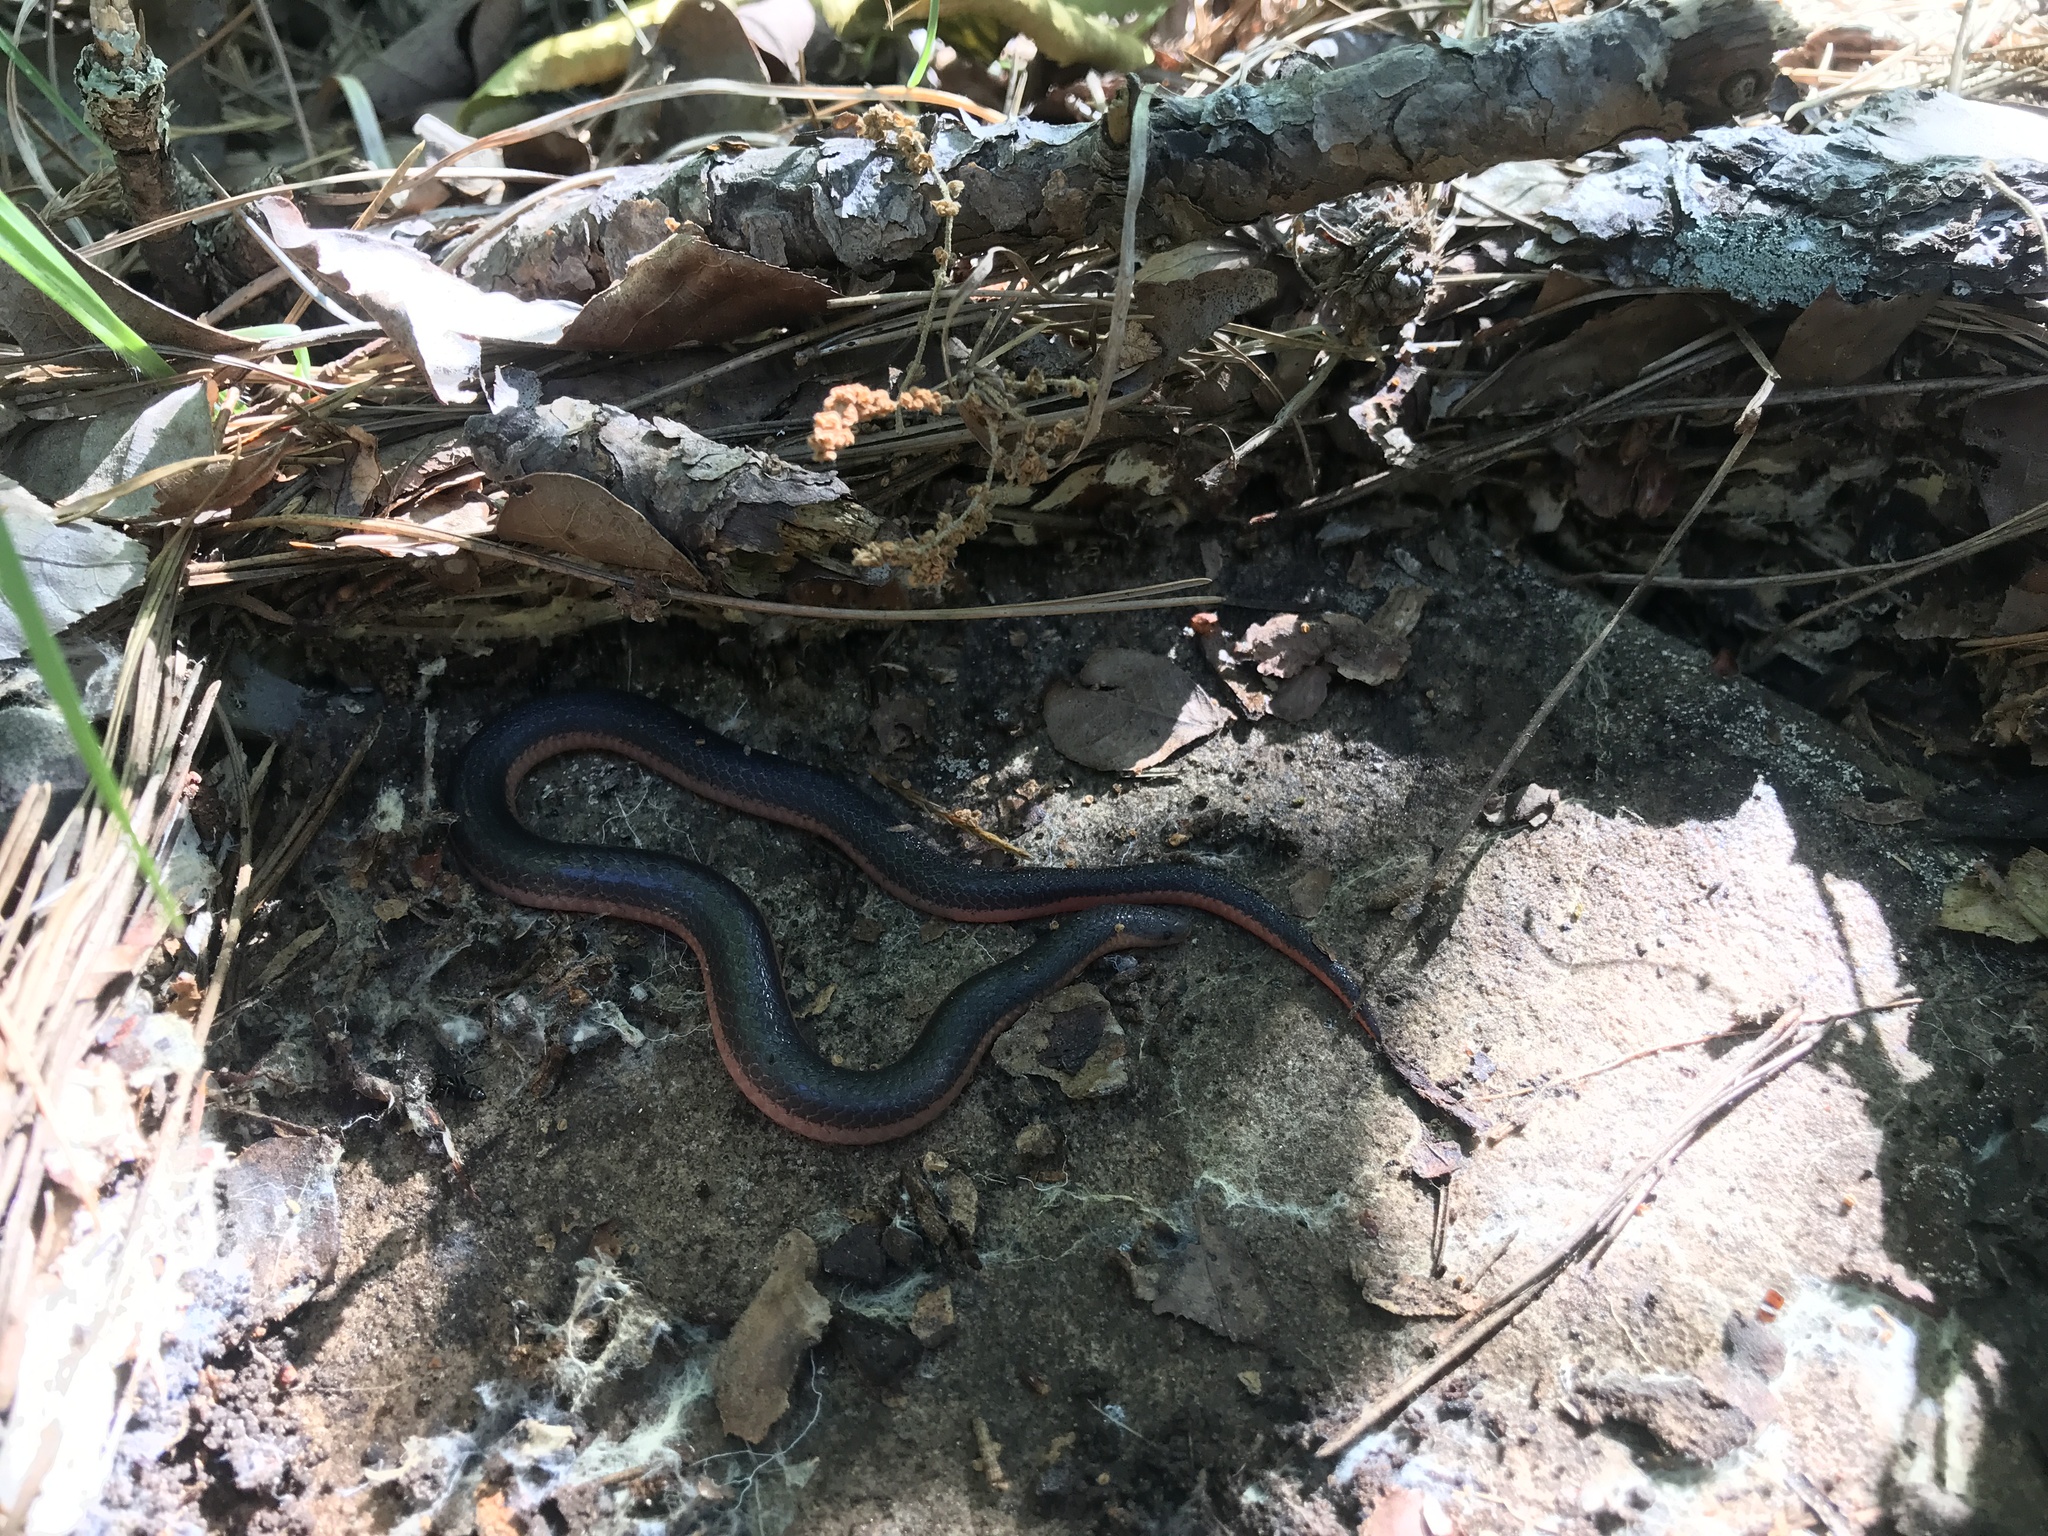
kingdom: Animalia
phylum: Chordata
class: Squamata
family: Colubridae
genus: Carphophis
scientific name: Carphophis vermis
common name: Western worm snake
